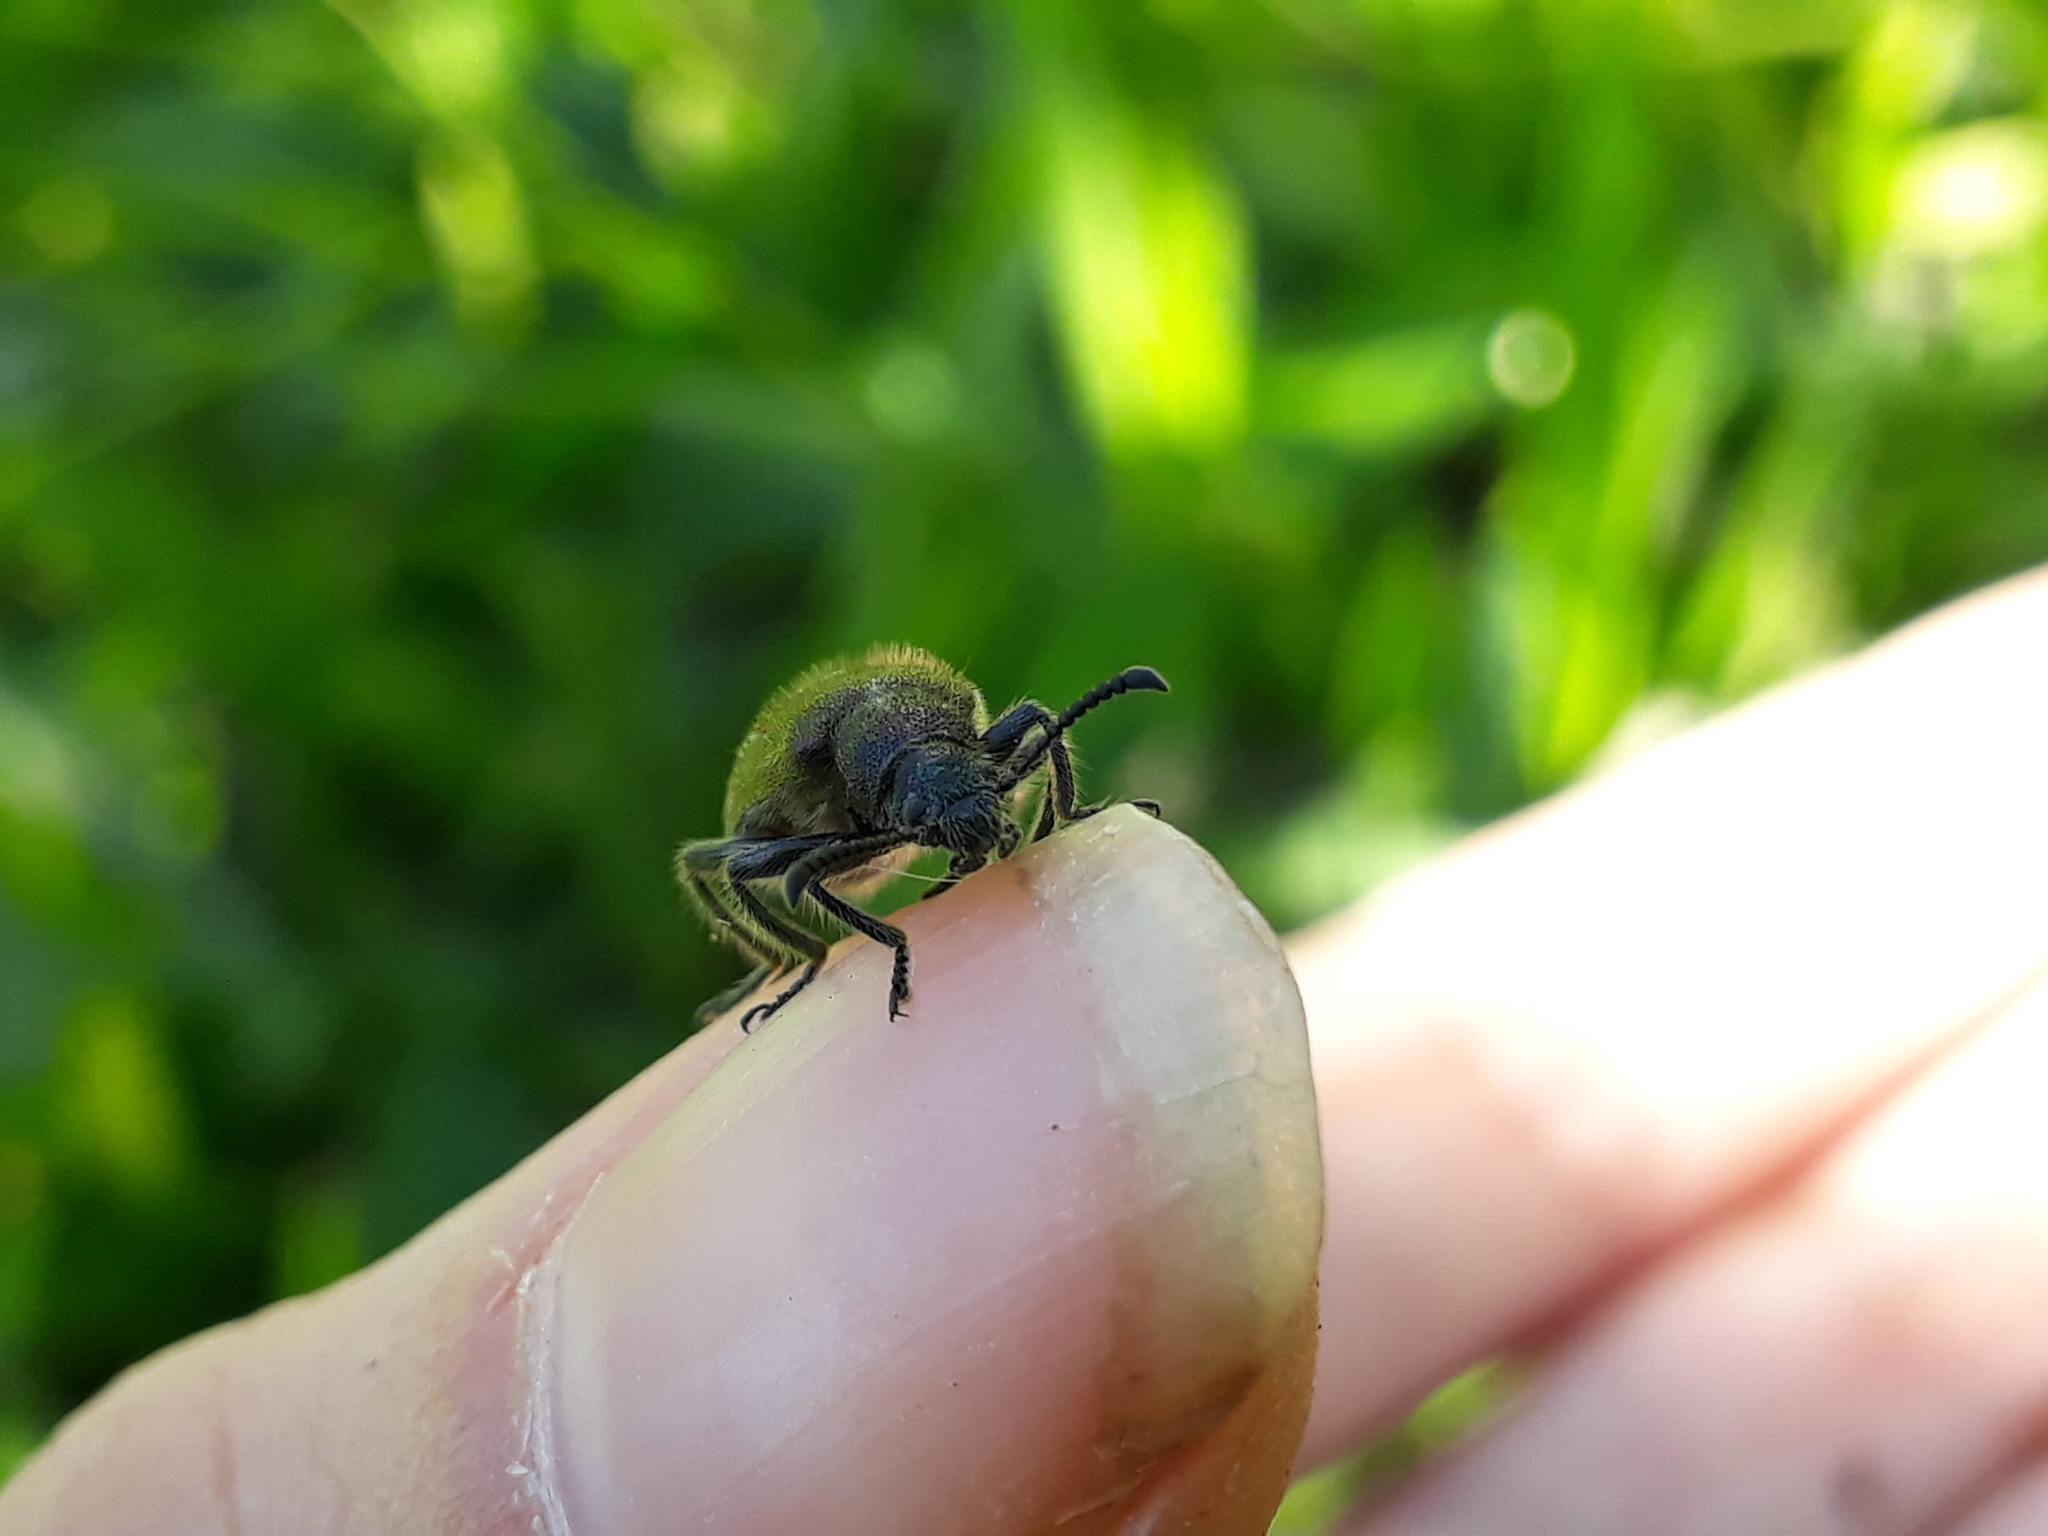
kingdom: Animalia
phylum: Arthropoda
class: Insecta
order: Coleoptera
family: Tenebrionidae
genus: Lagria
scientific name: Lagria villosa
